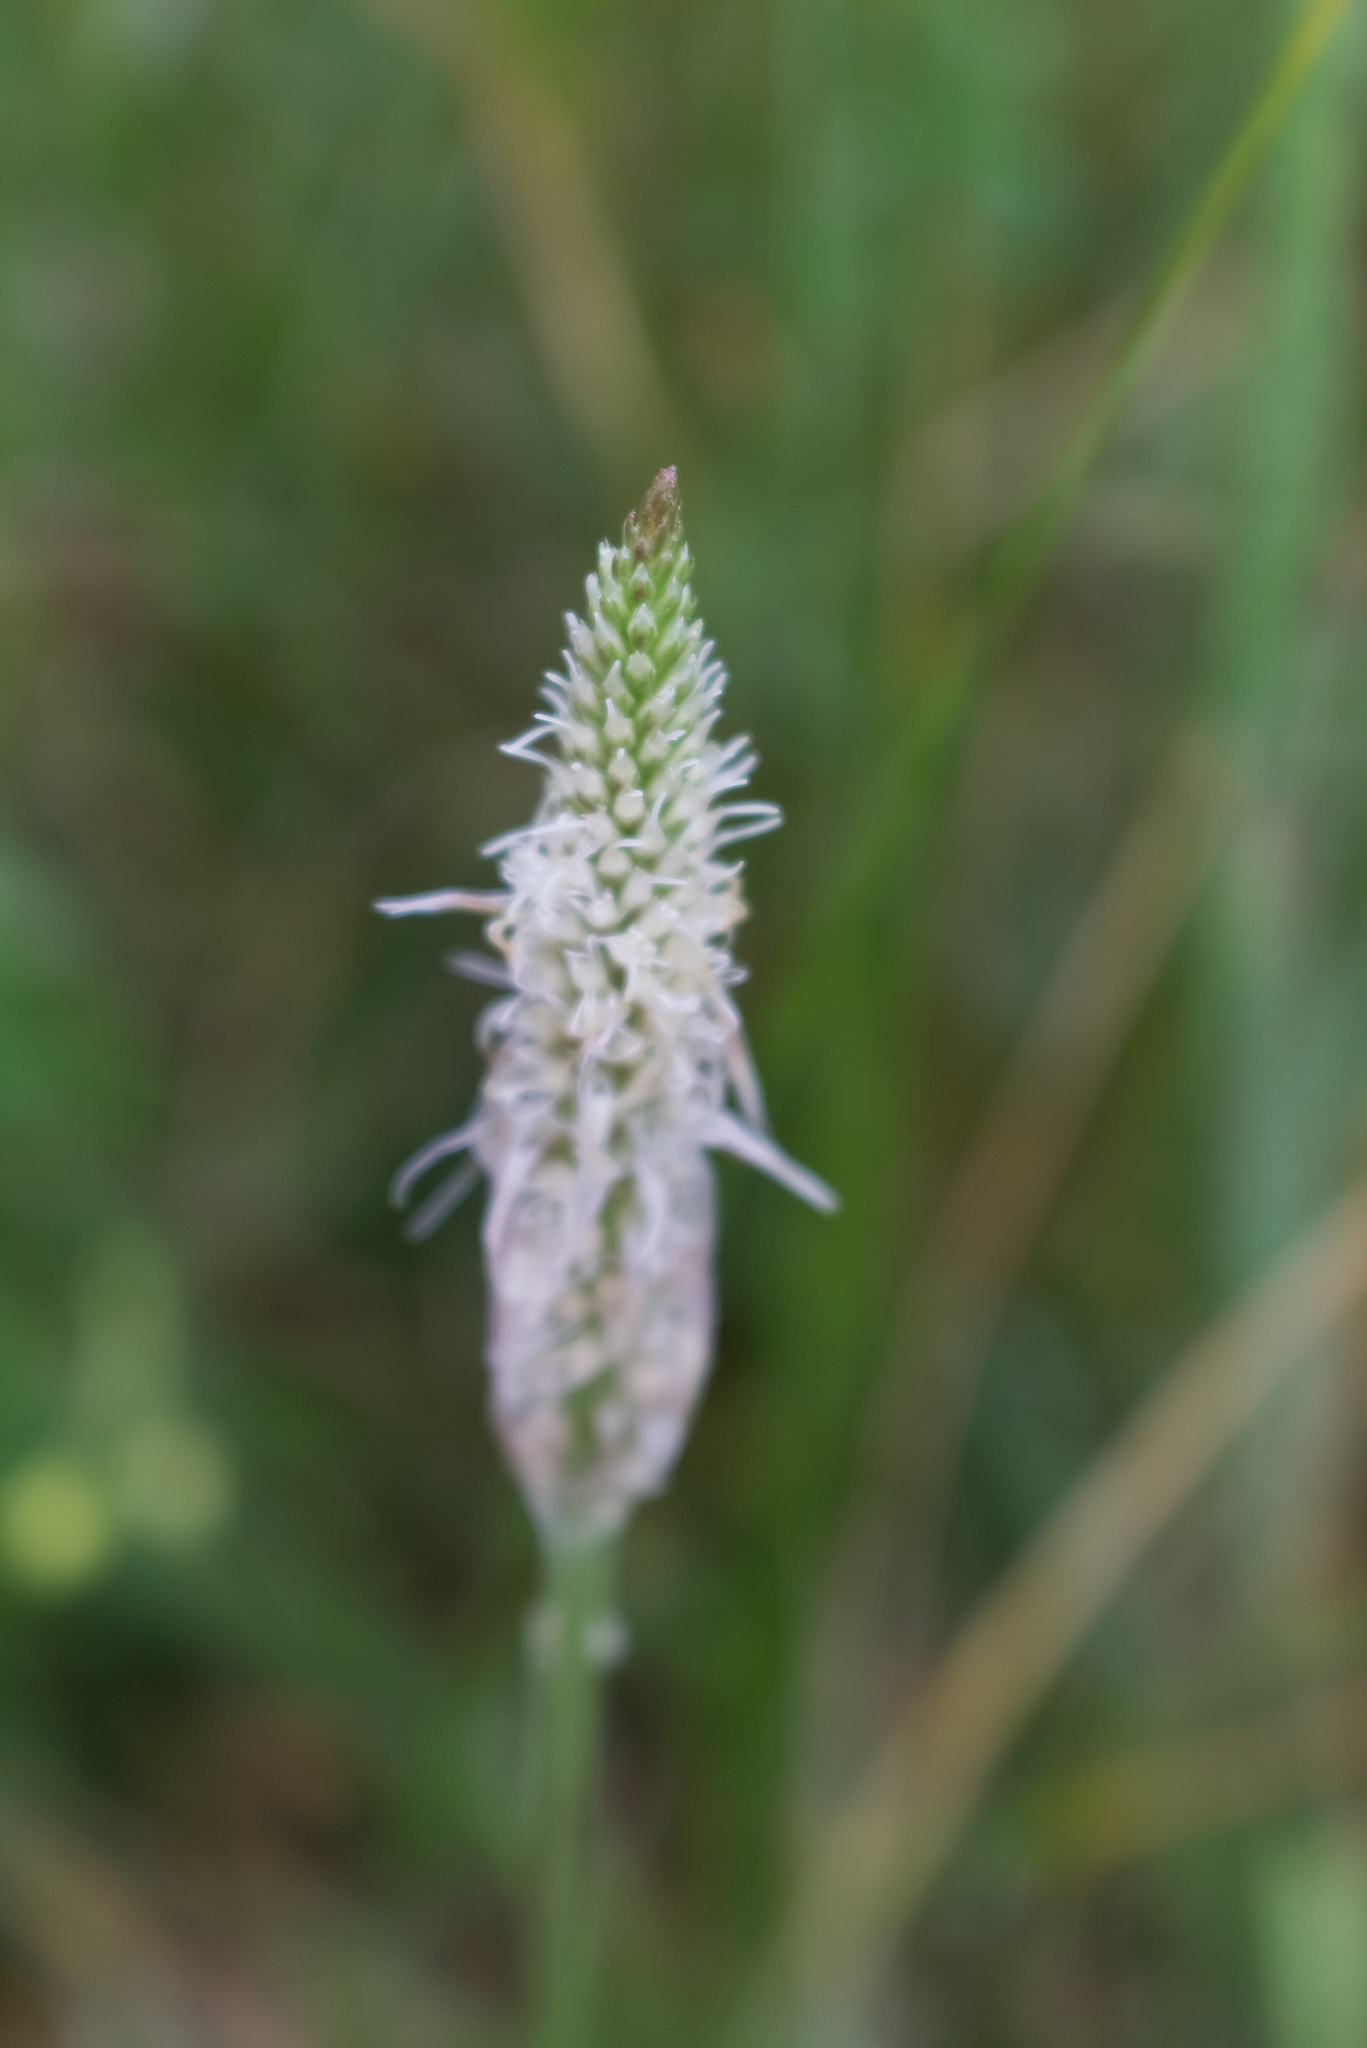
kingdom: Plantae
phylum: Tracheophyta
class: Magnoliopsida
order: Lamiales
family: Plantaginaceae
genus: Plantago
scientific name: Plantago media
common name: Hoary plantain
